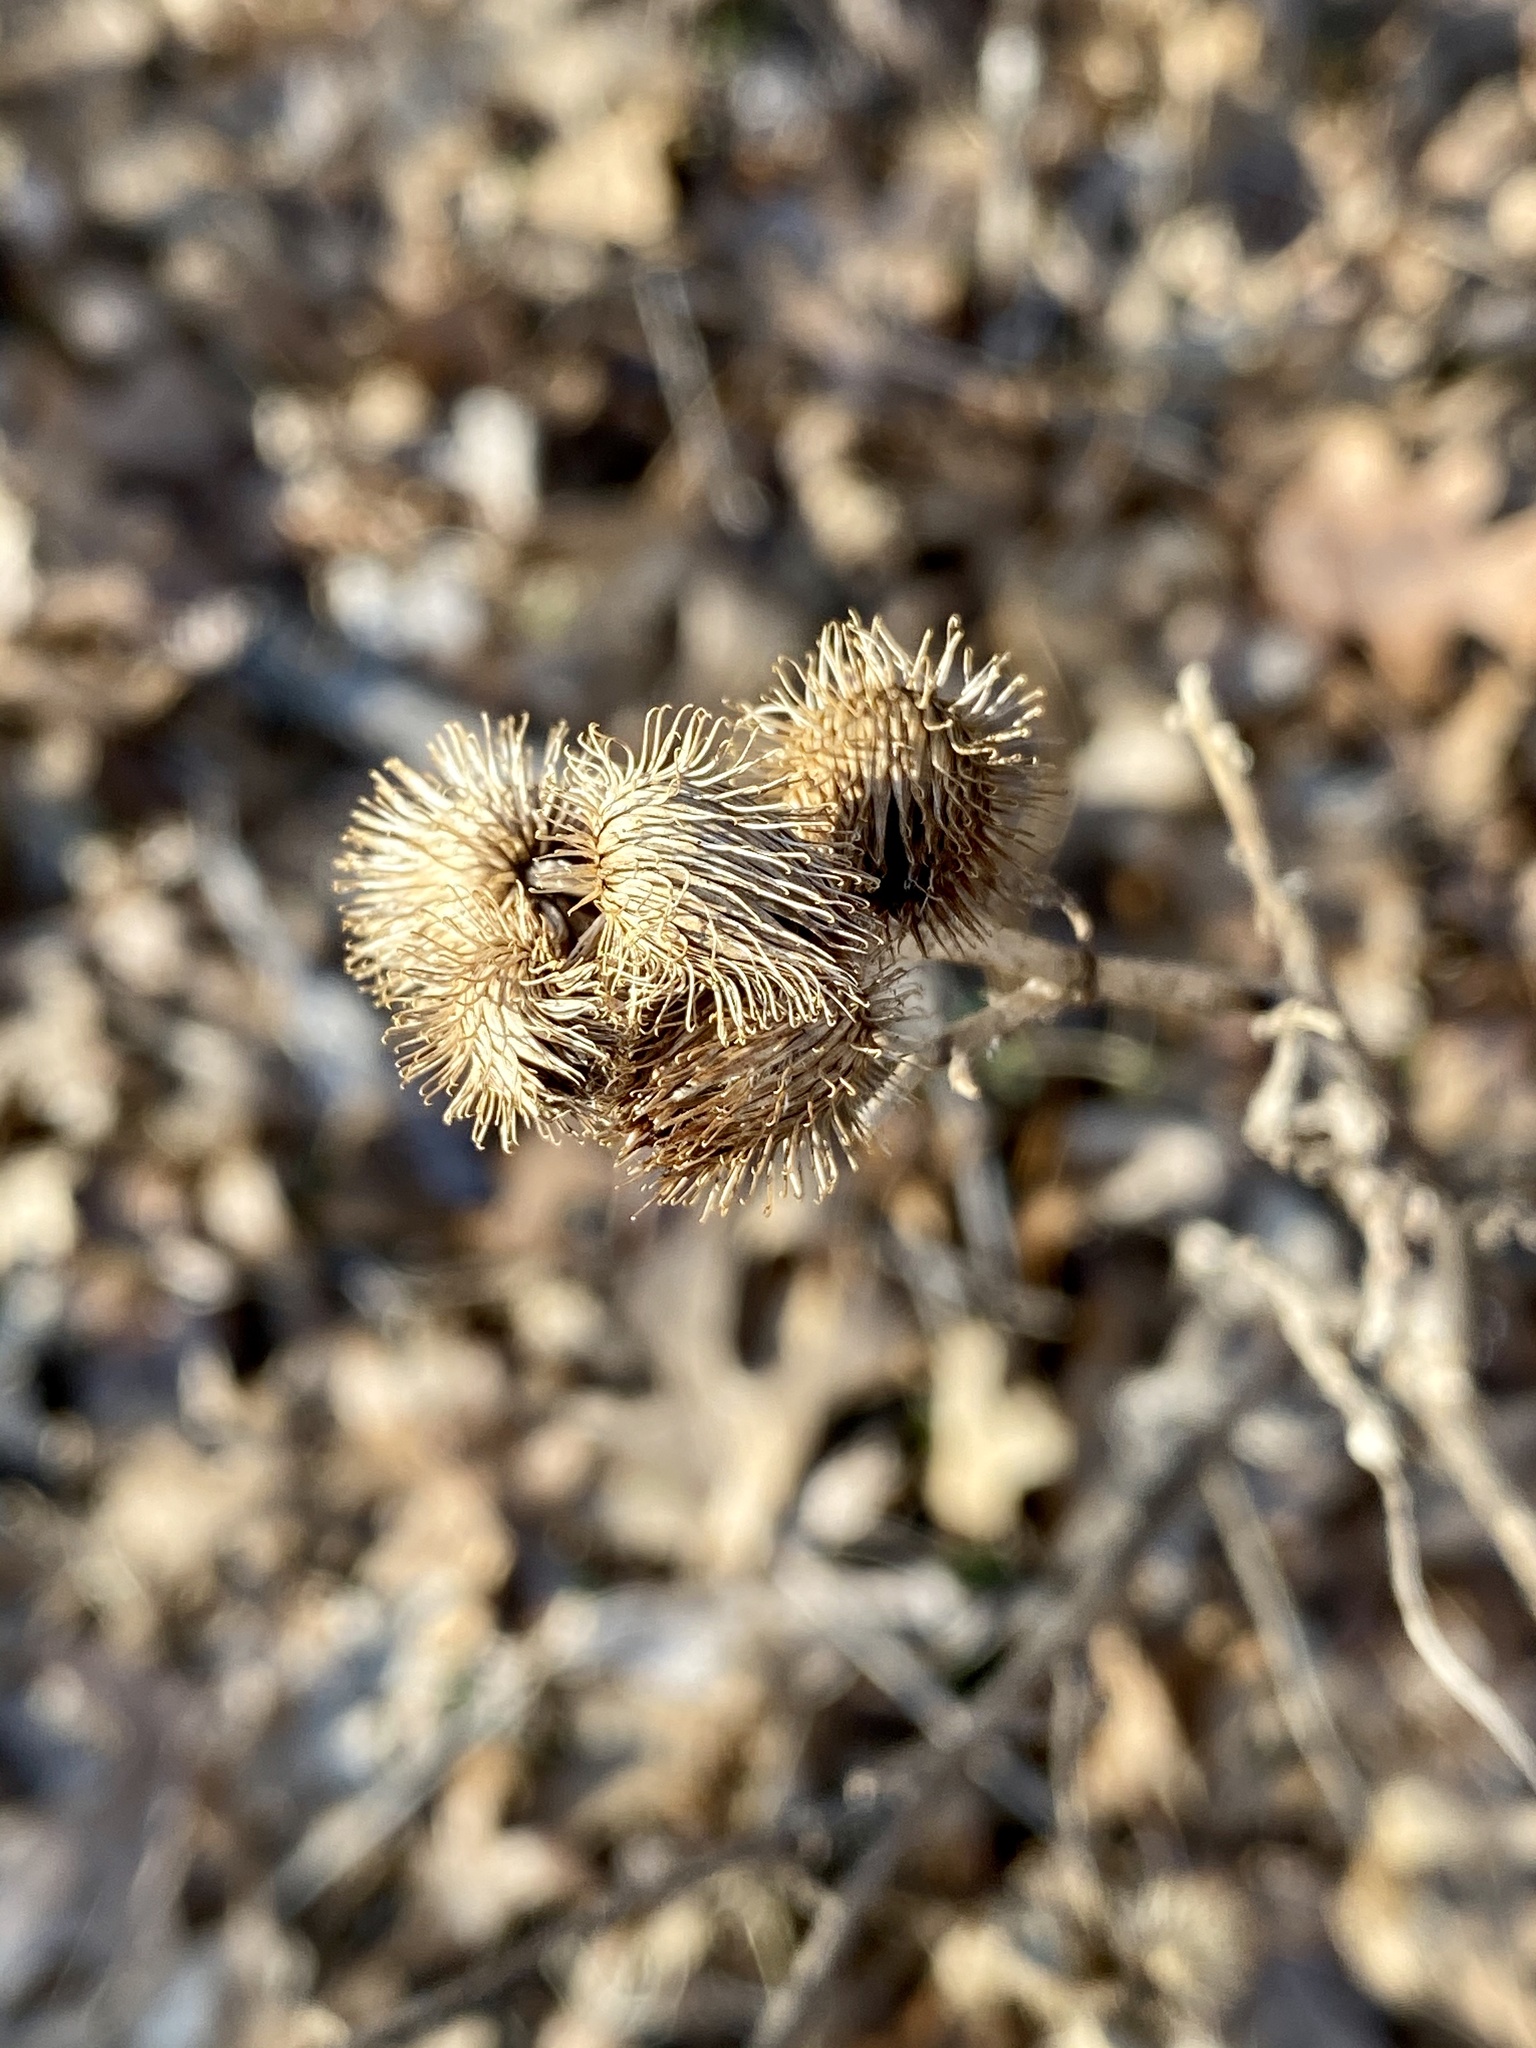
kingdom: Plantae
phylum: Tracheophyta
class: Magnoliopsida
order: Asterales
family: Asteraceae
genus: Arctium
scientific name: Arctium minus
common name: Lesser burdock
